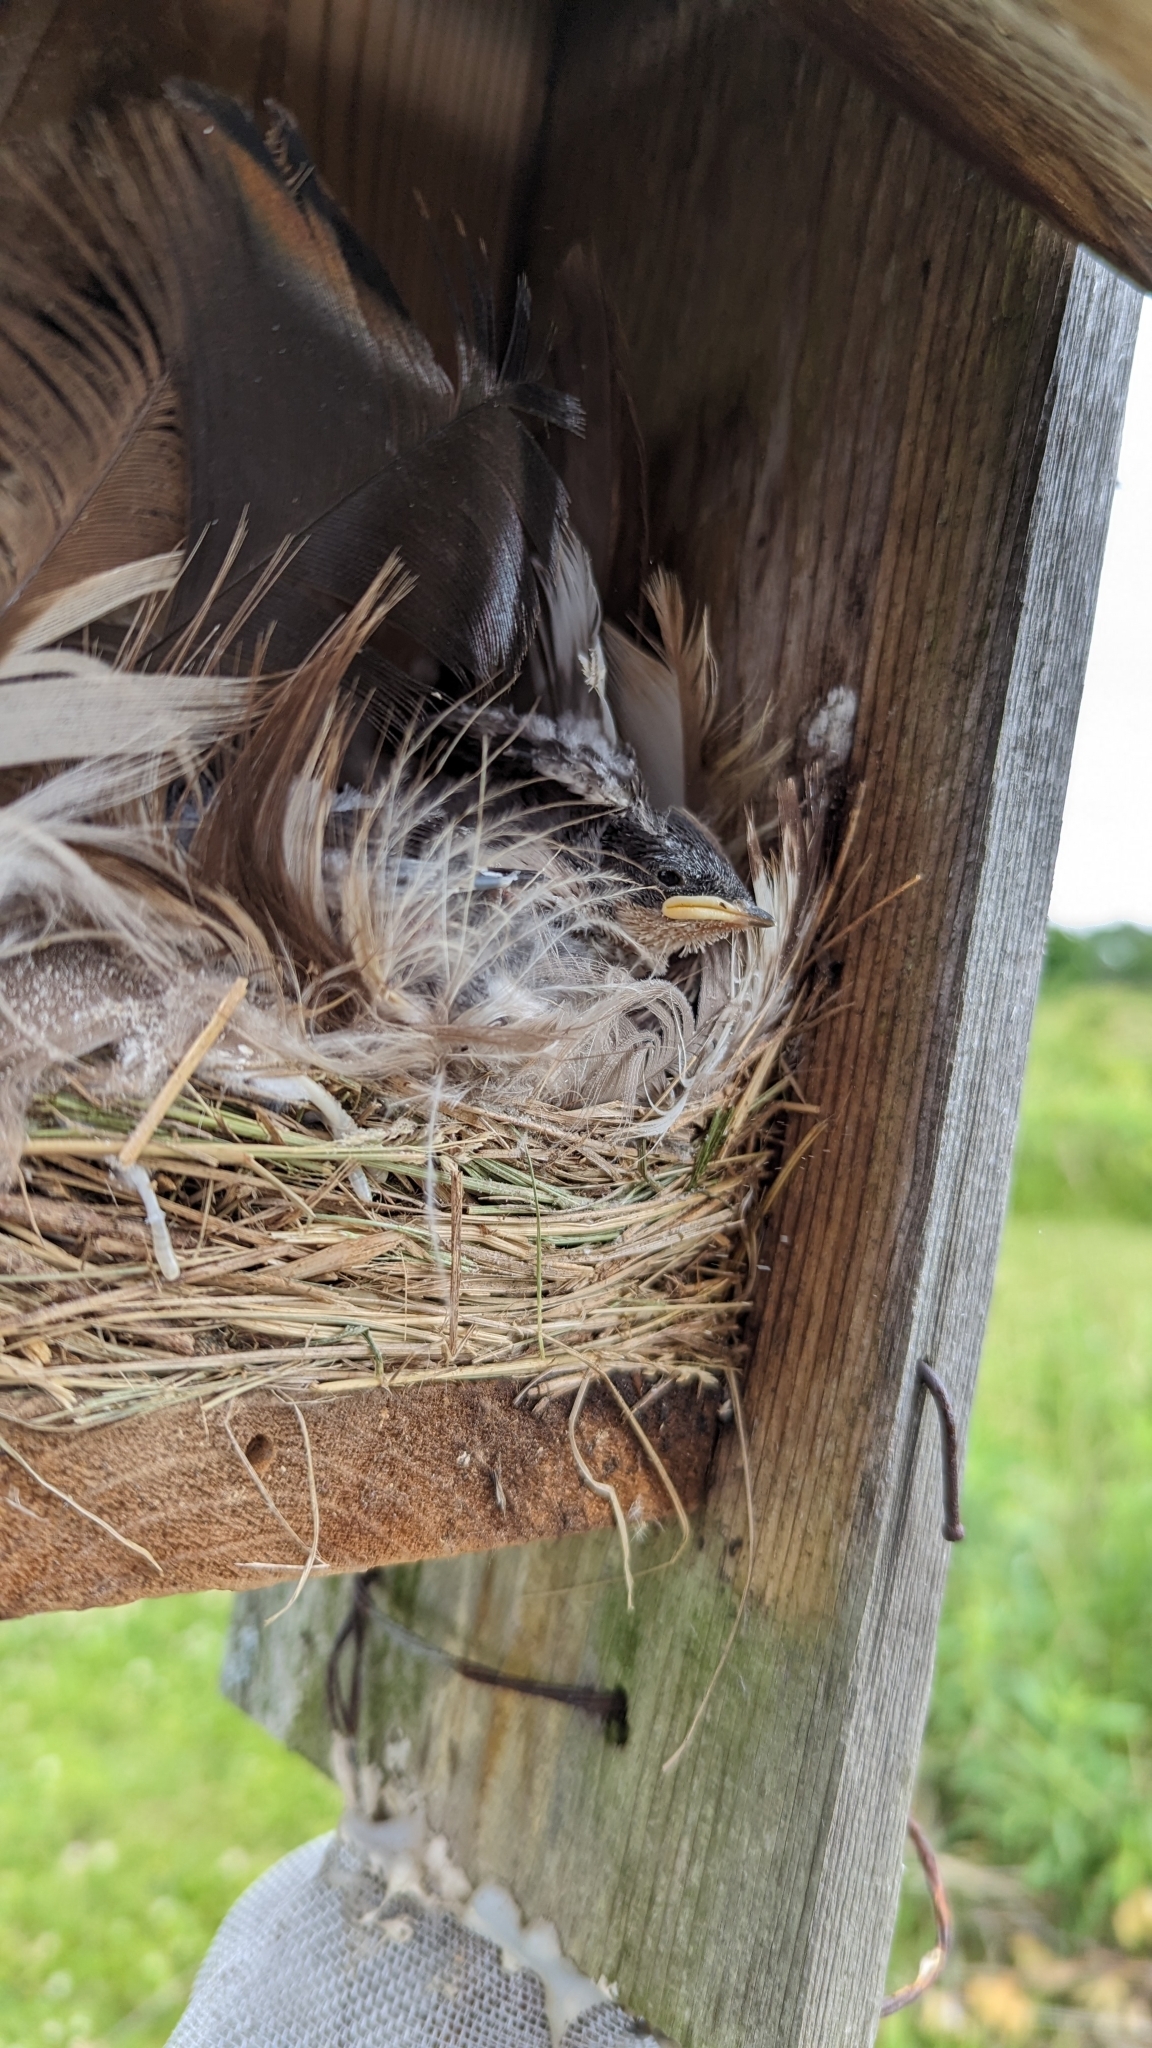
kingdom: Animalia
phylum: Chordata
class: Aves
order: Passeriformes
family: Hirundinidae
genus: Tachycineta
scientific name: Tachycineta bicolor
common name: Tree swallow
